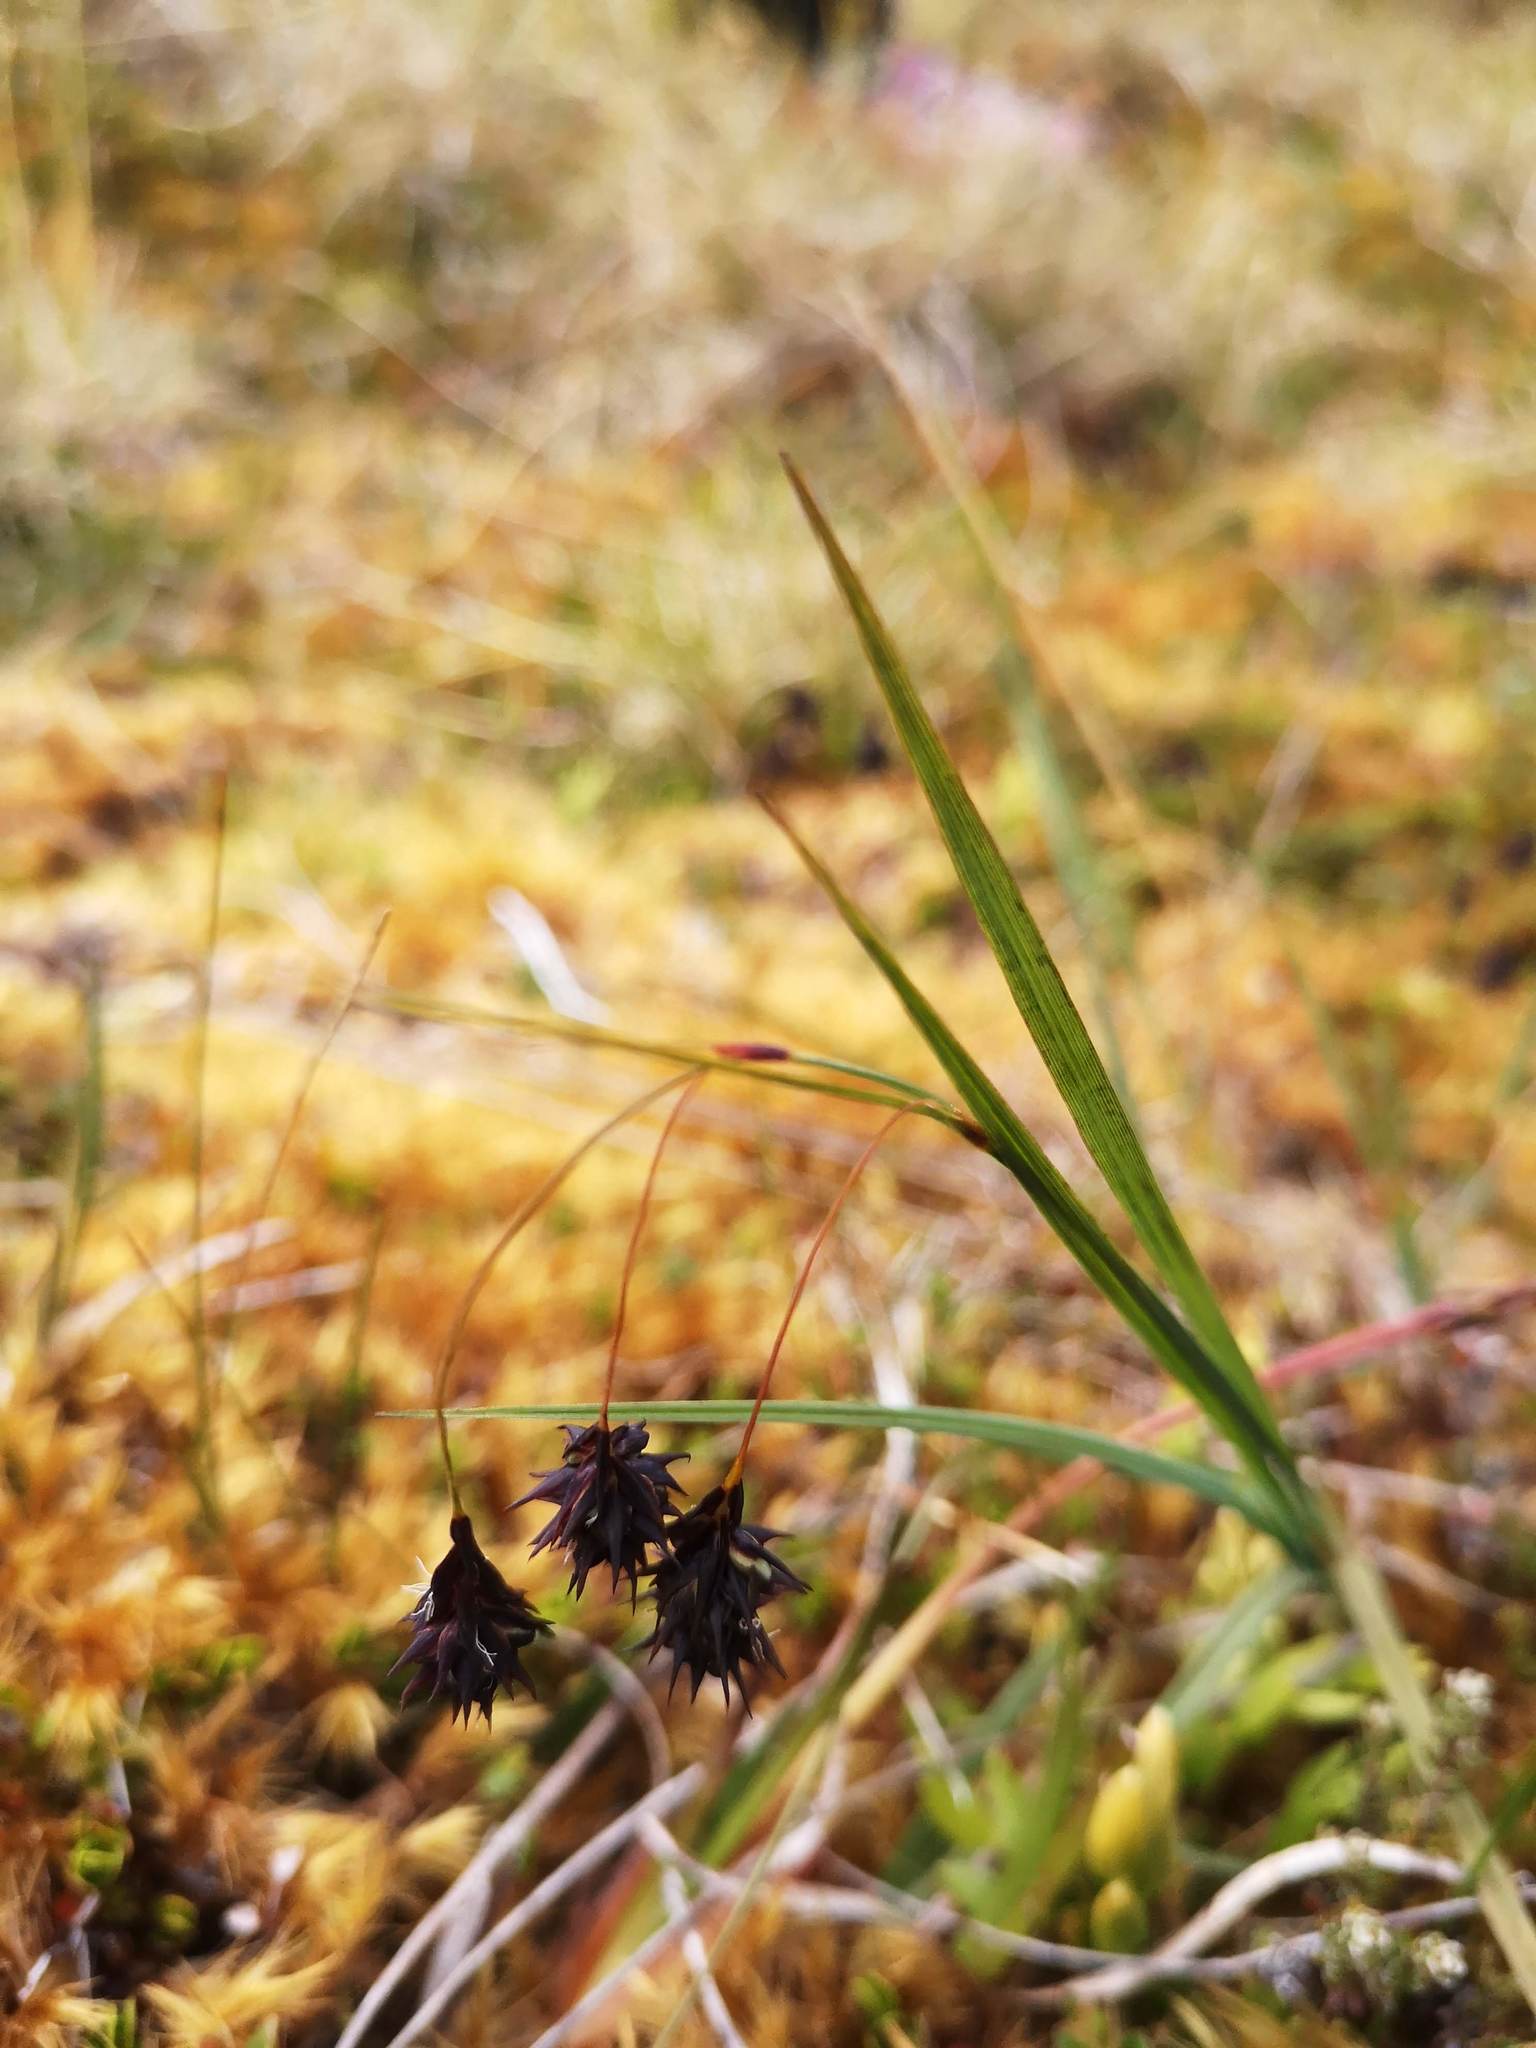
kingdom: Plantae
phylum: Tracheophyta
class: Liliopsida
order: Poales
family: Cyperaceae
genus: Carex
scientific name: Carex magellanica
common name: Bog sedge
